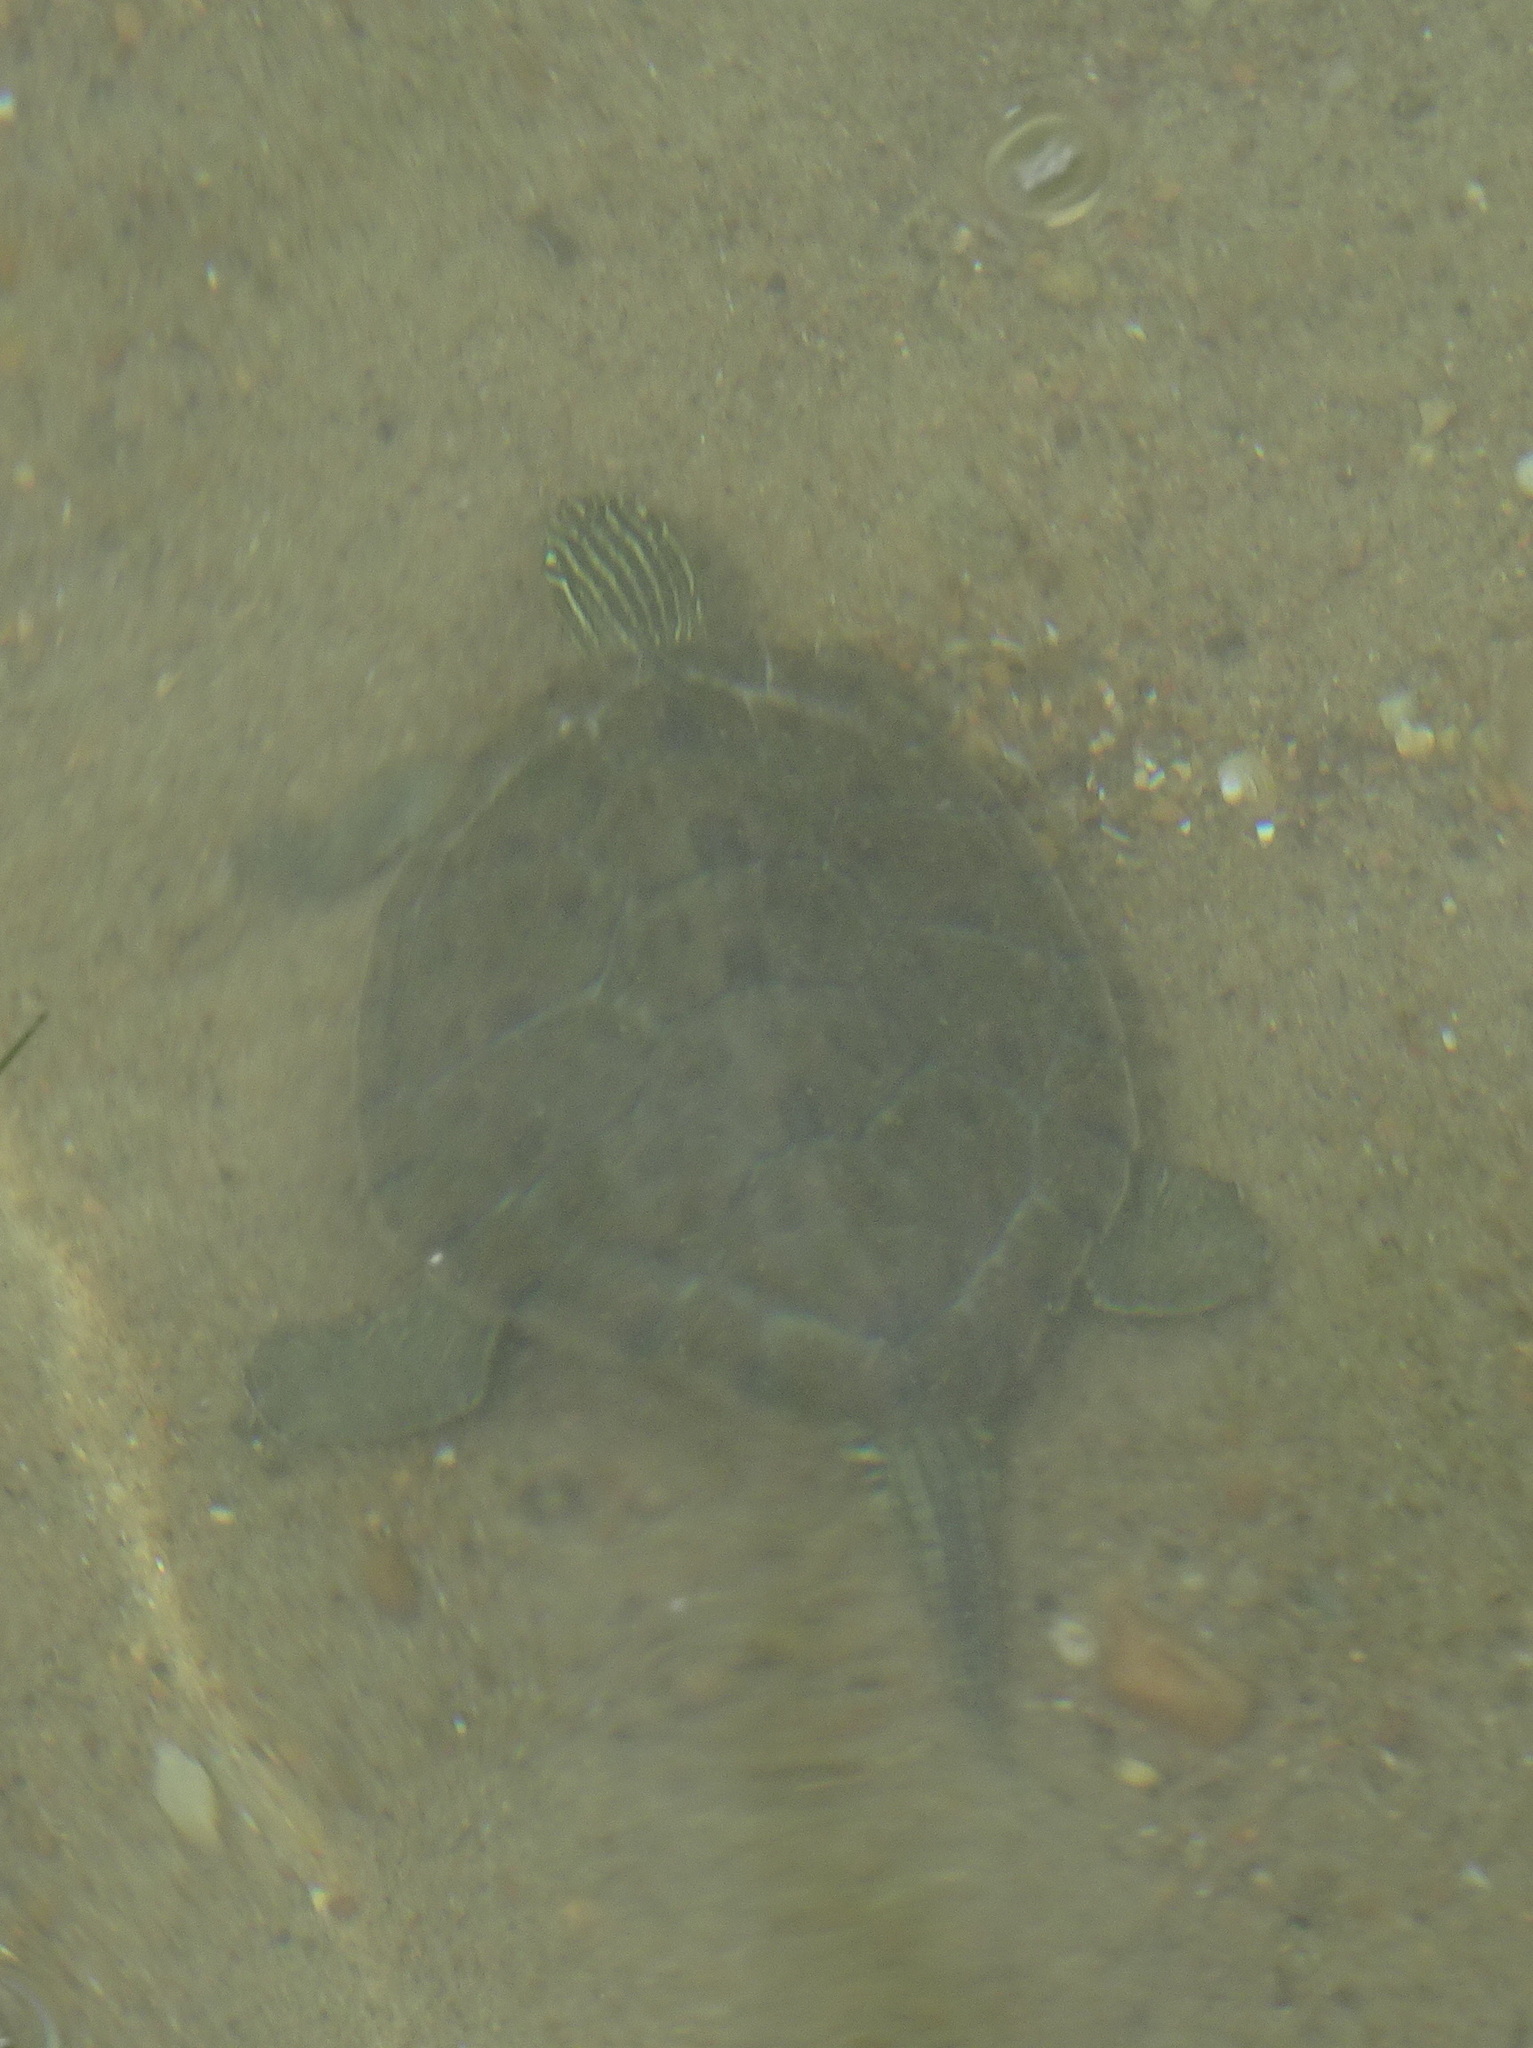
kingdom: Animalia
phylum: Chordata
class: Testudines
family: Emydidae
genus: Graptemys
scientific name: Graptemys geographica
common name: Common map turtle
